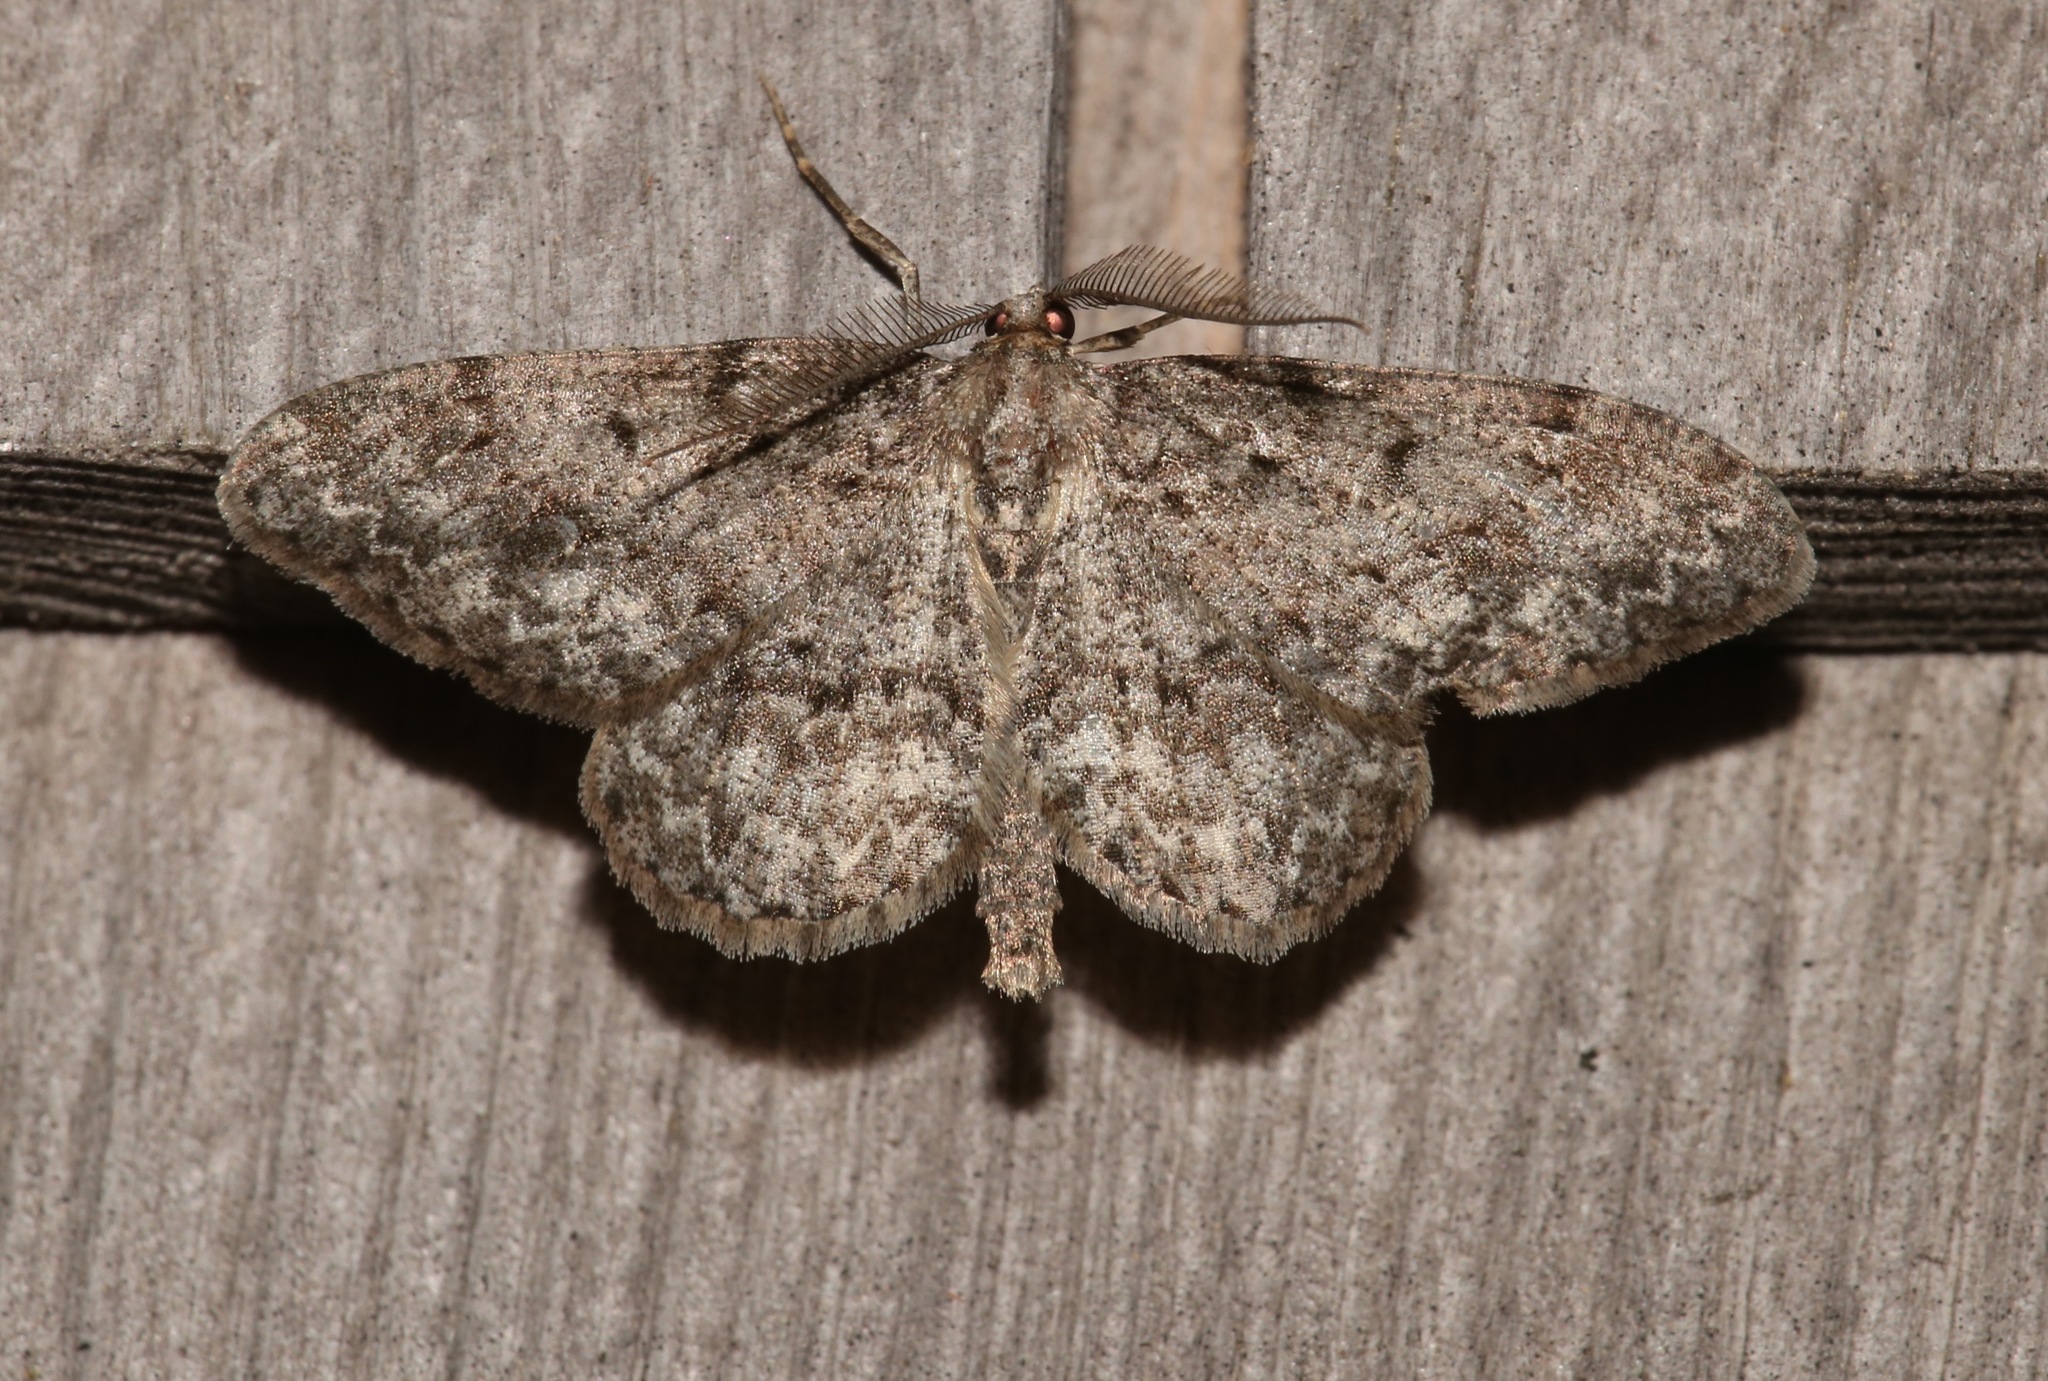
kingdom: Animalia
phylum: Arthropoda
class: Insecta
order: Lepidoptera
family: Geometridae
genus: Protoboarmia
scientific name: Protoboarmia porcelaria
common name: Porcelain gray
